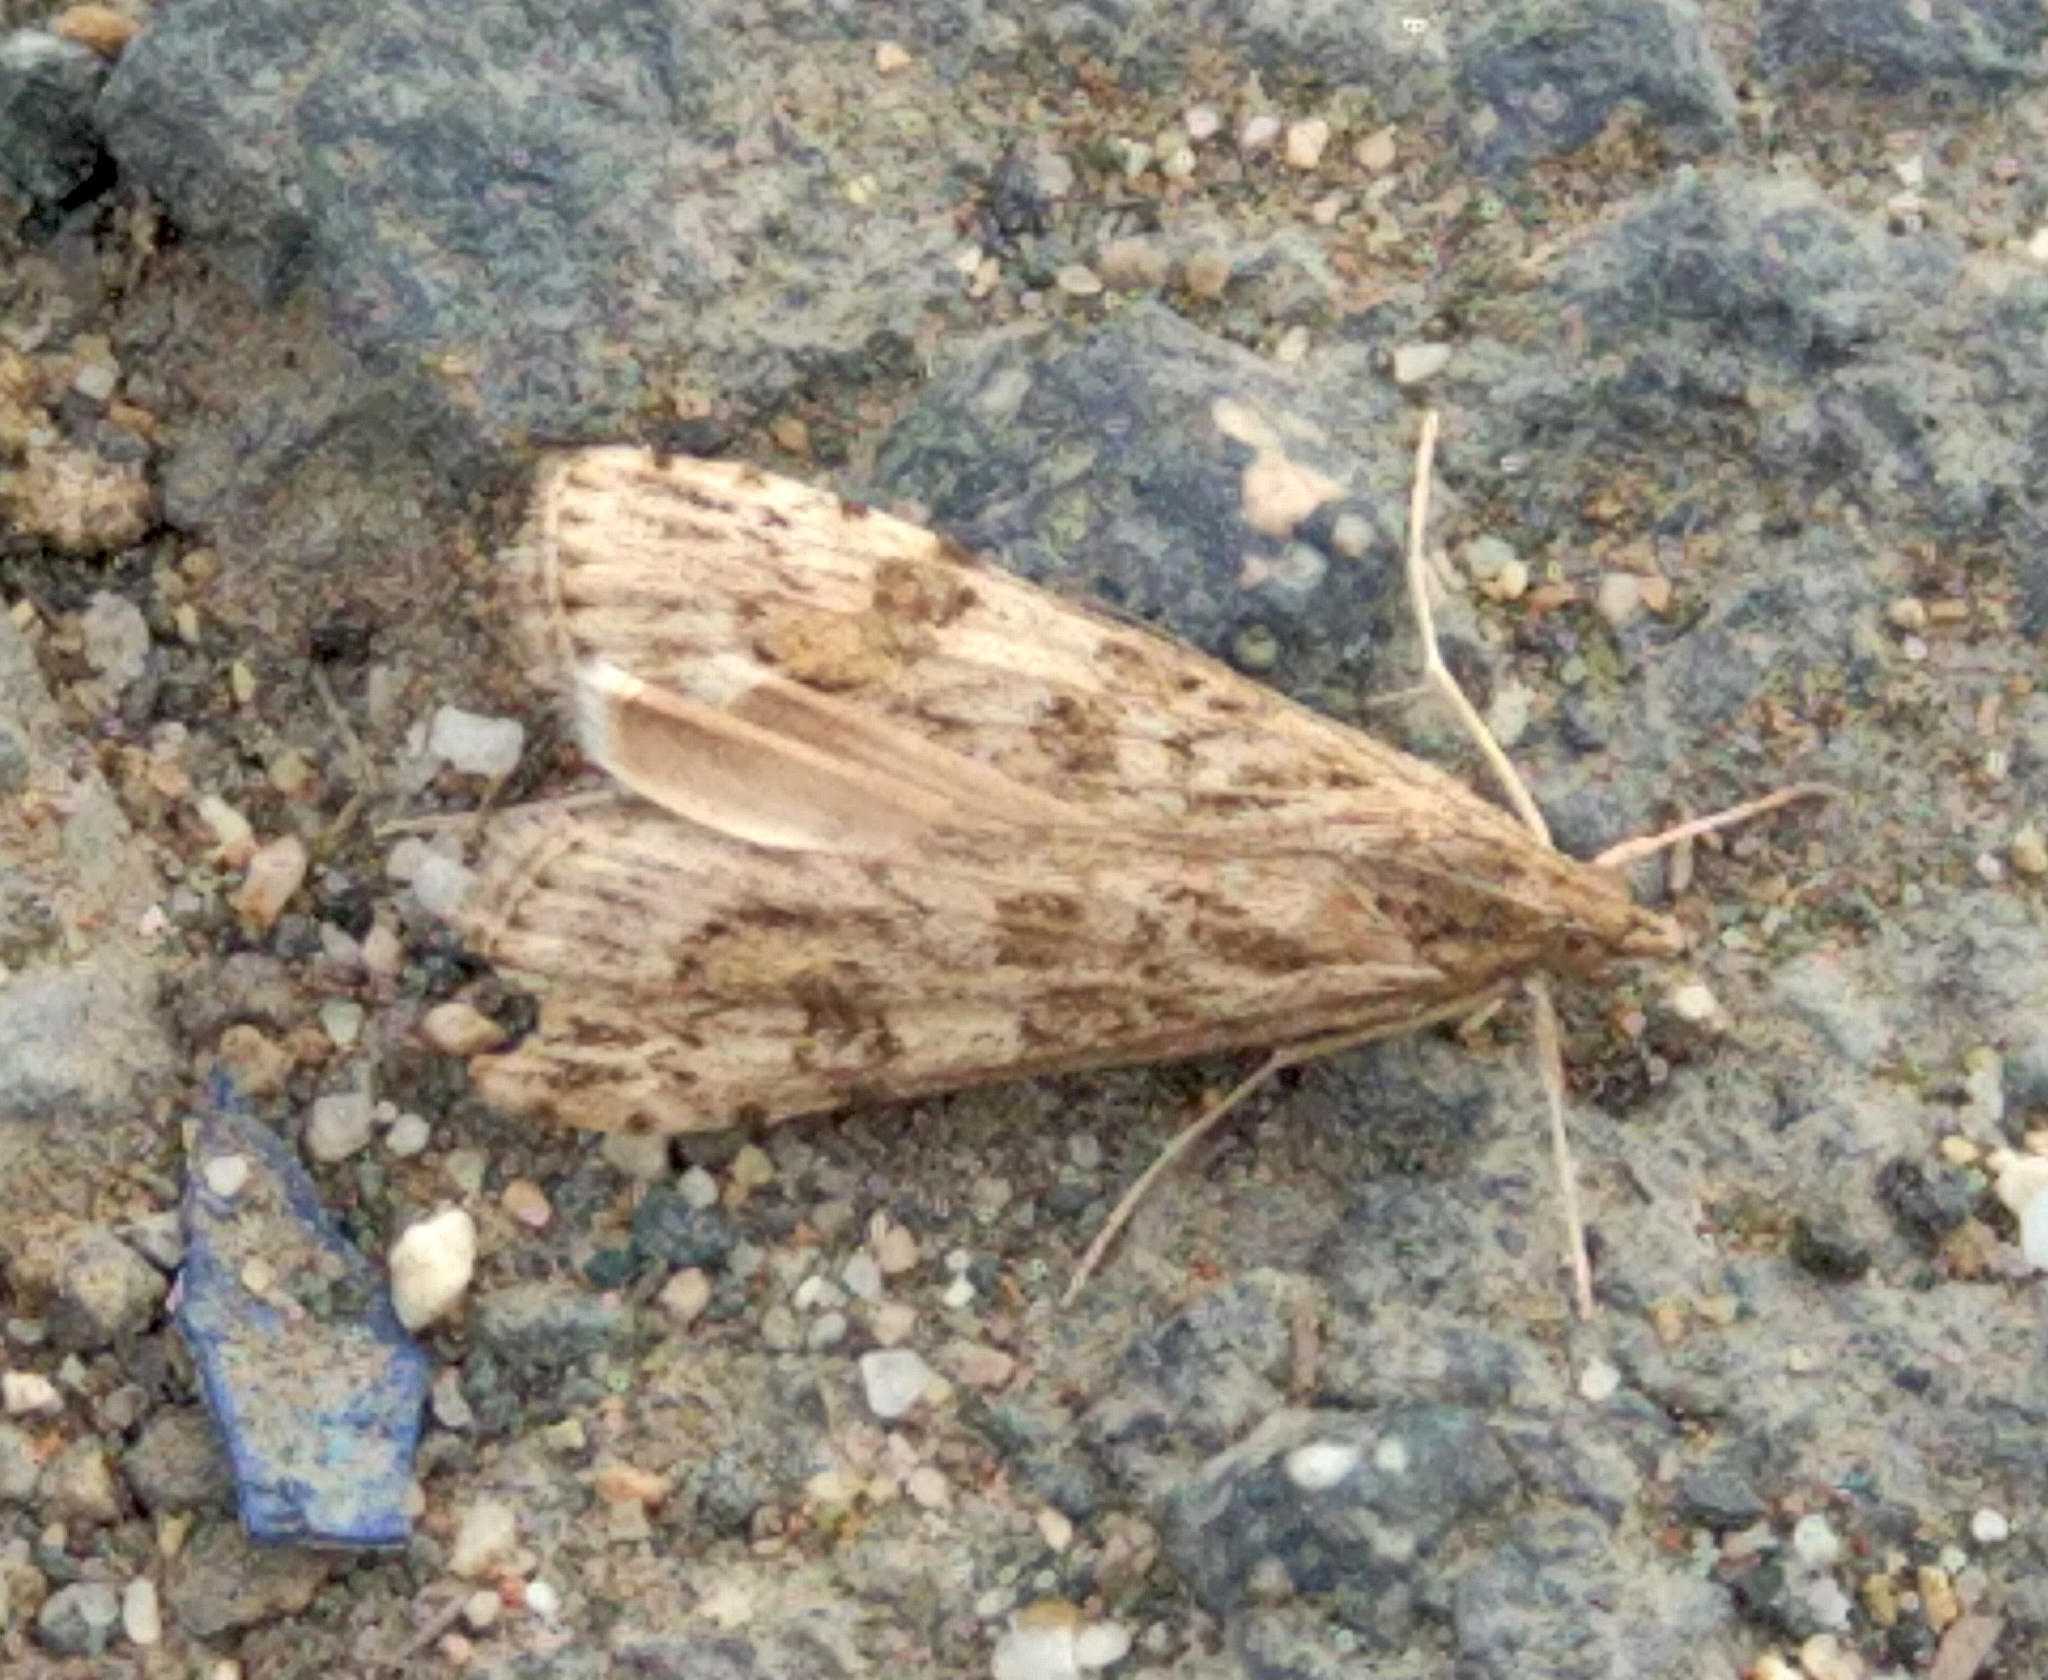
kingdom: Animalia
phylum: Arthropoda
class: Insecta
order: Lepidoptera
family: Crambidae
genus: Nomophila
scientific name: Nomophila noctuella
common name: Rush veneer
